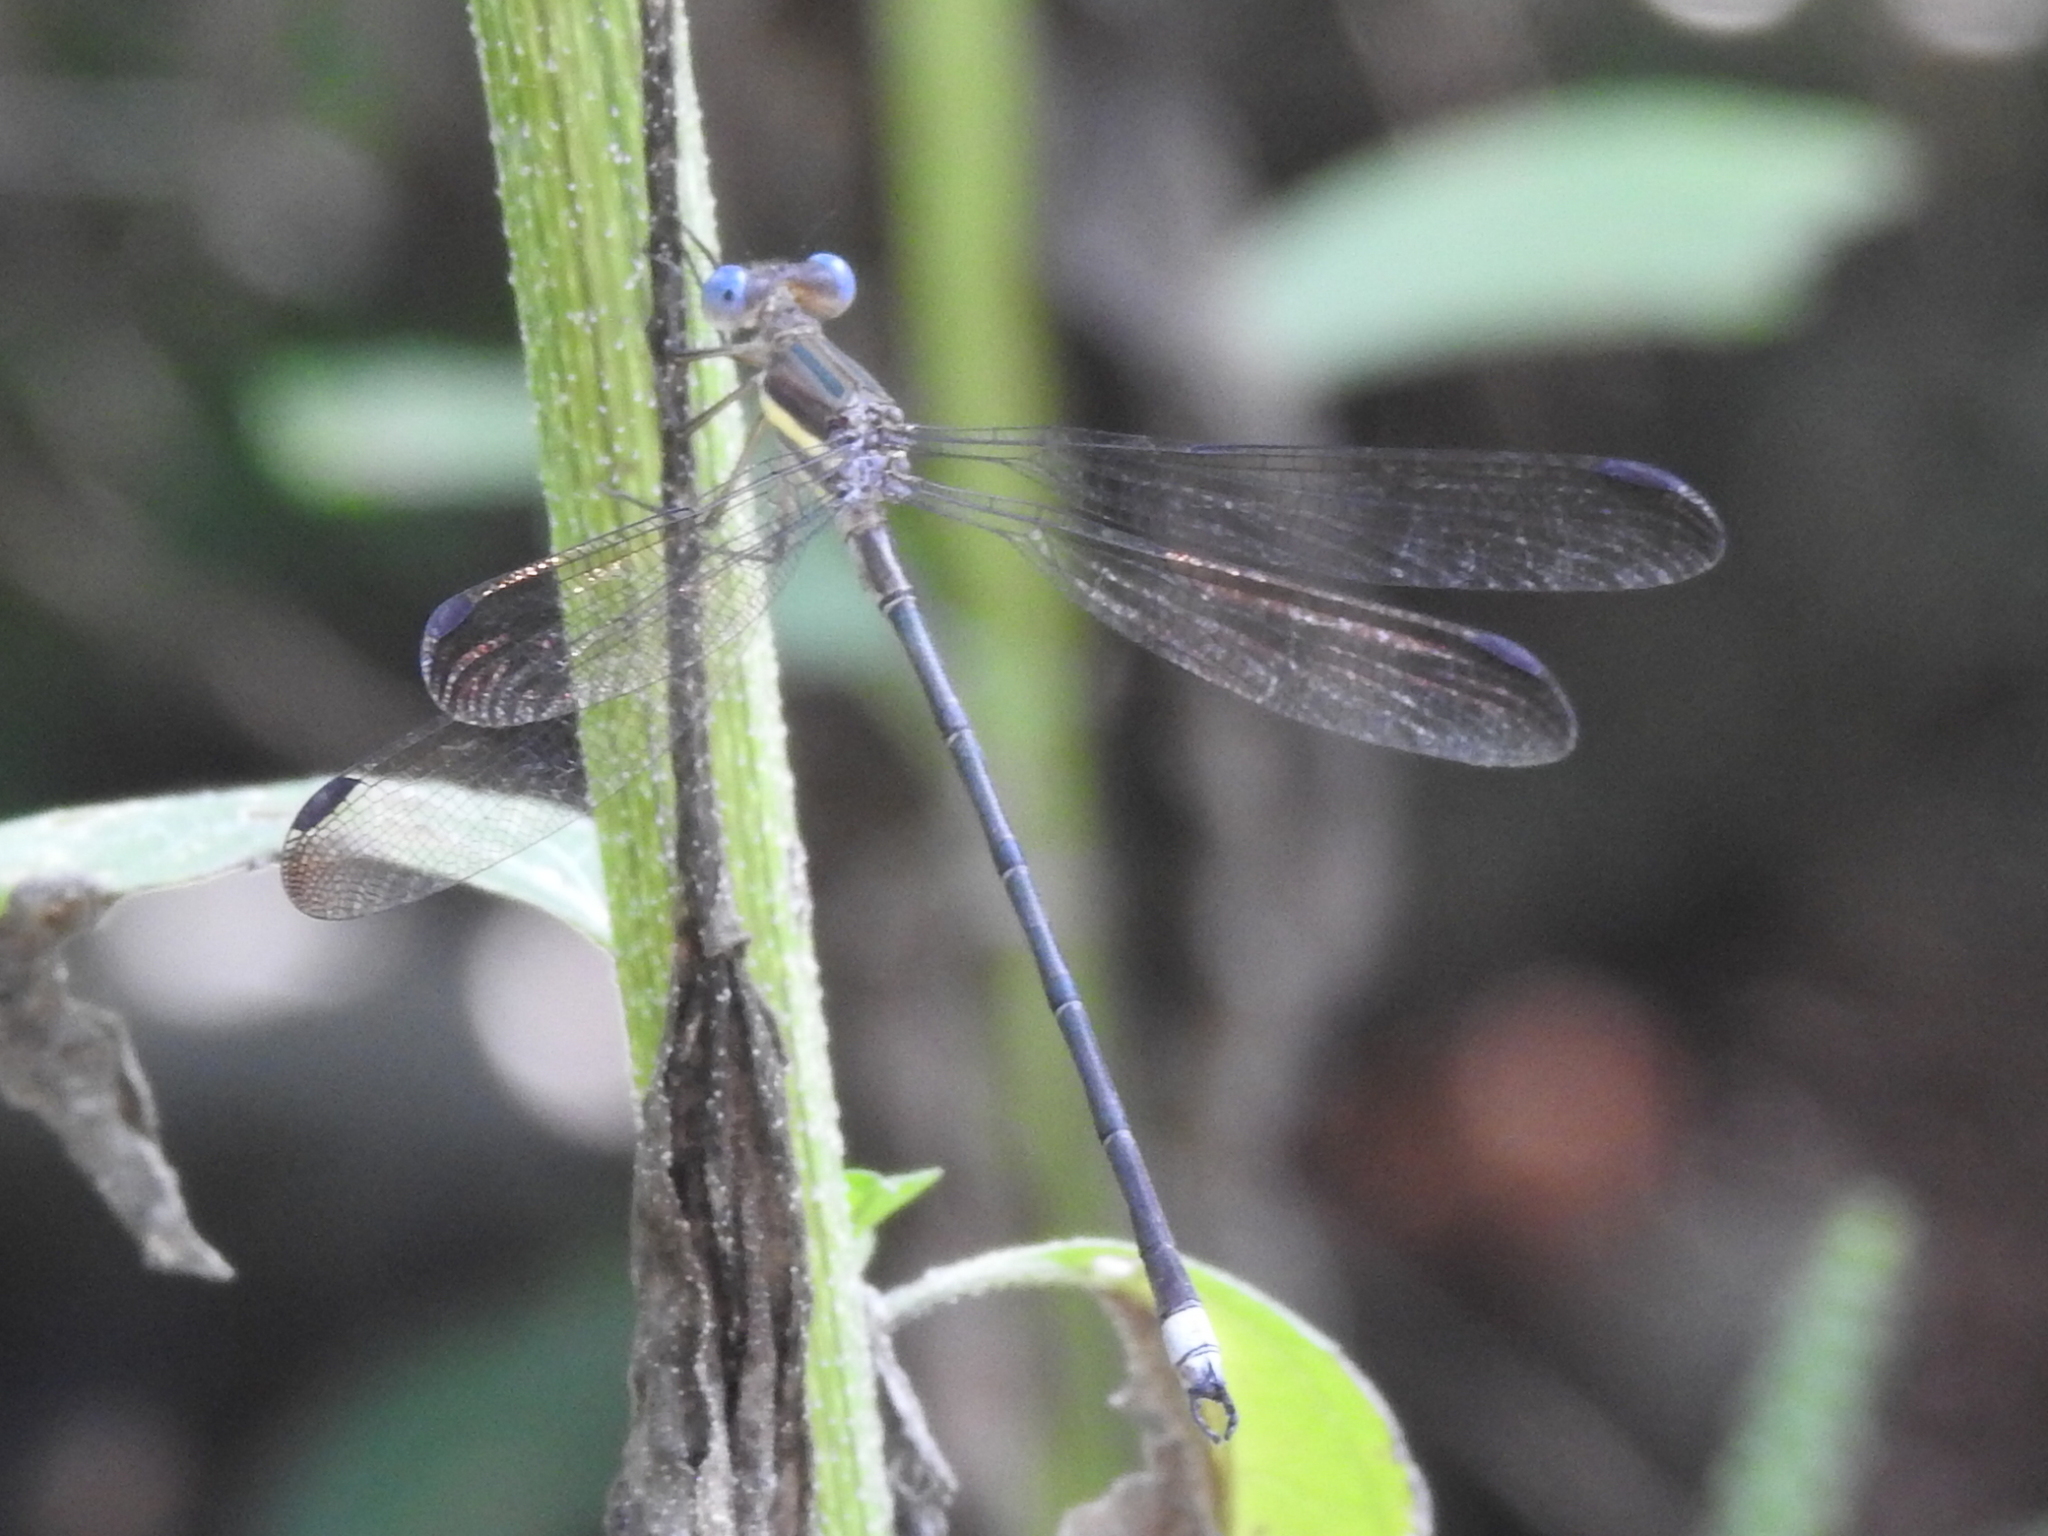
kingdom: Animalia
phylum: Arthropoda
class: Insecta
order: Odonata
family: Lestidae
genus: Archilestes
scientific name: Archilestes grandis
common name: Great spreadwing
